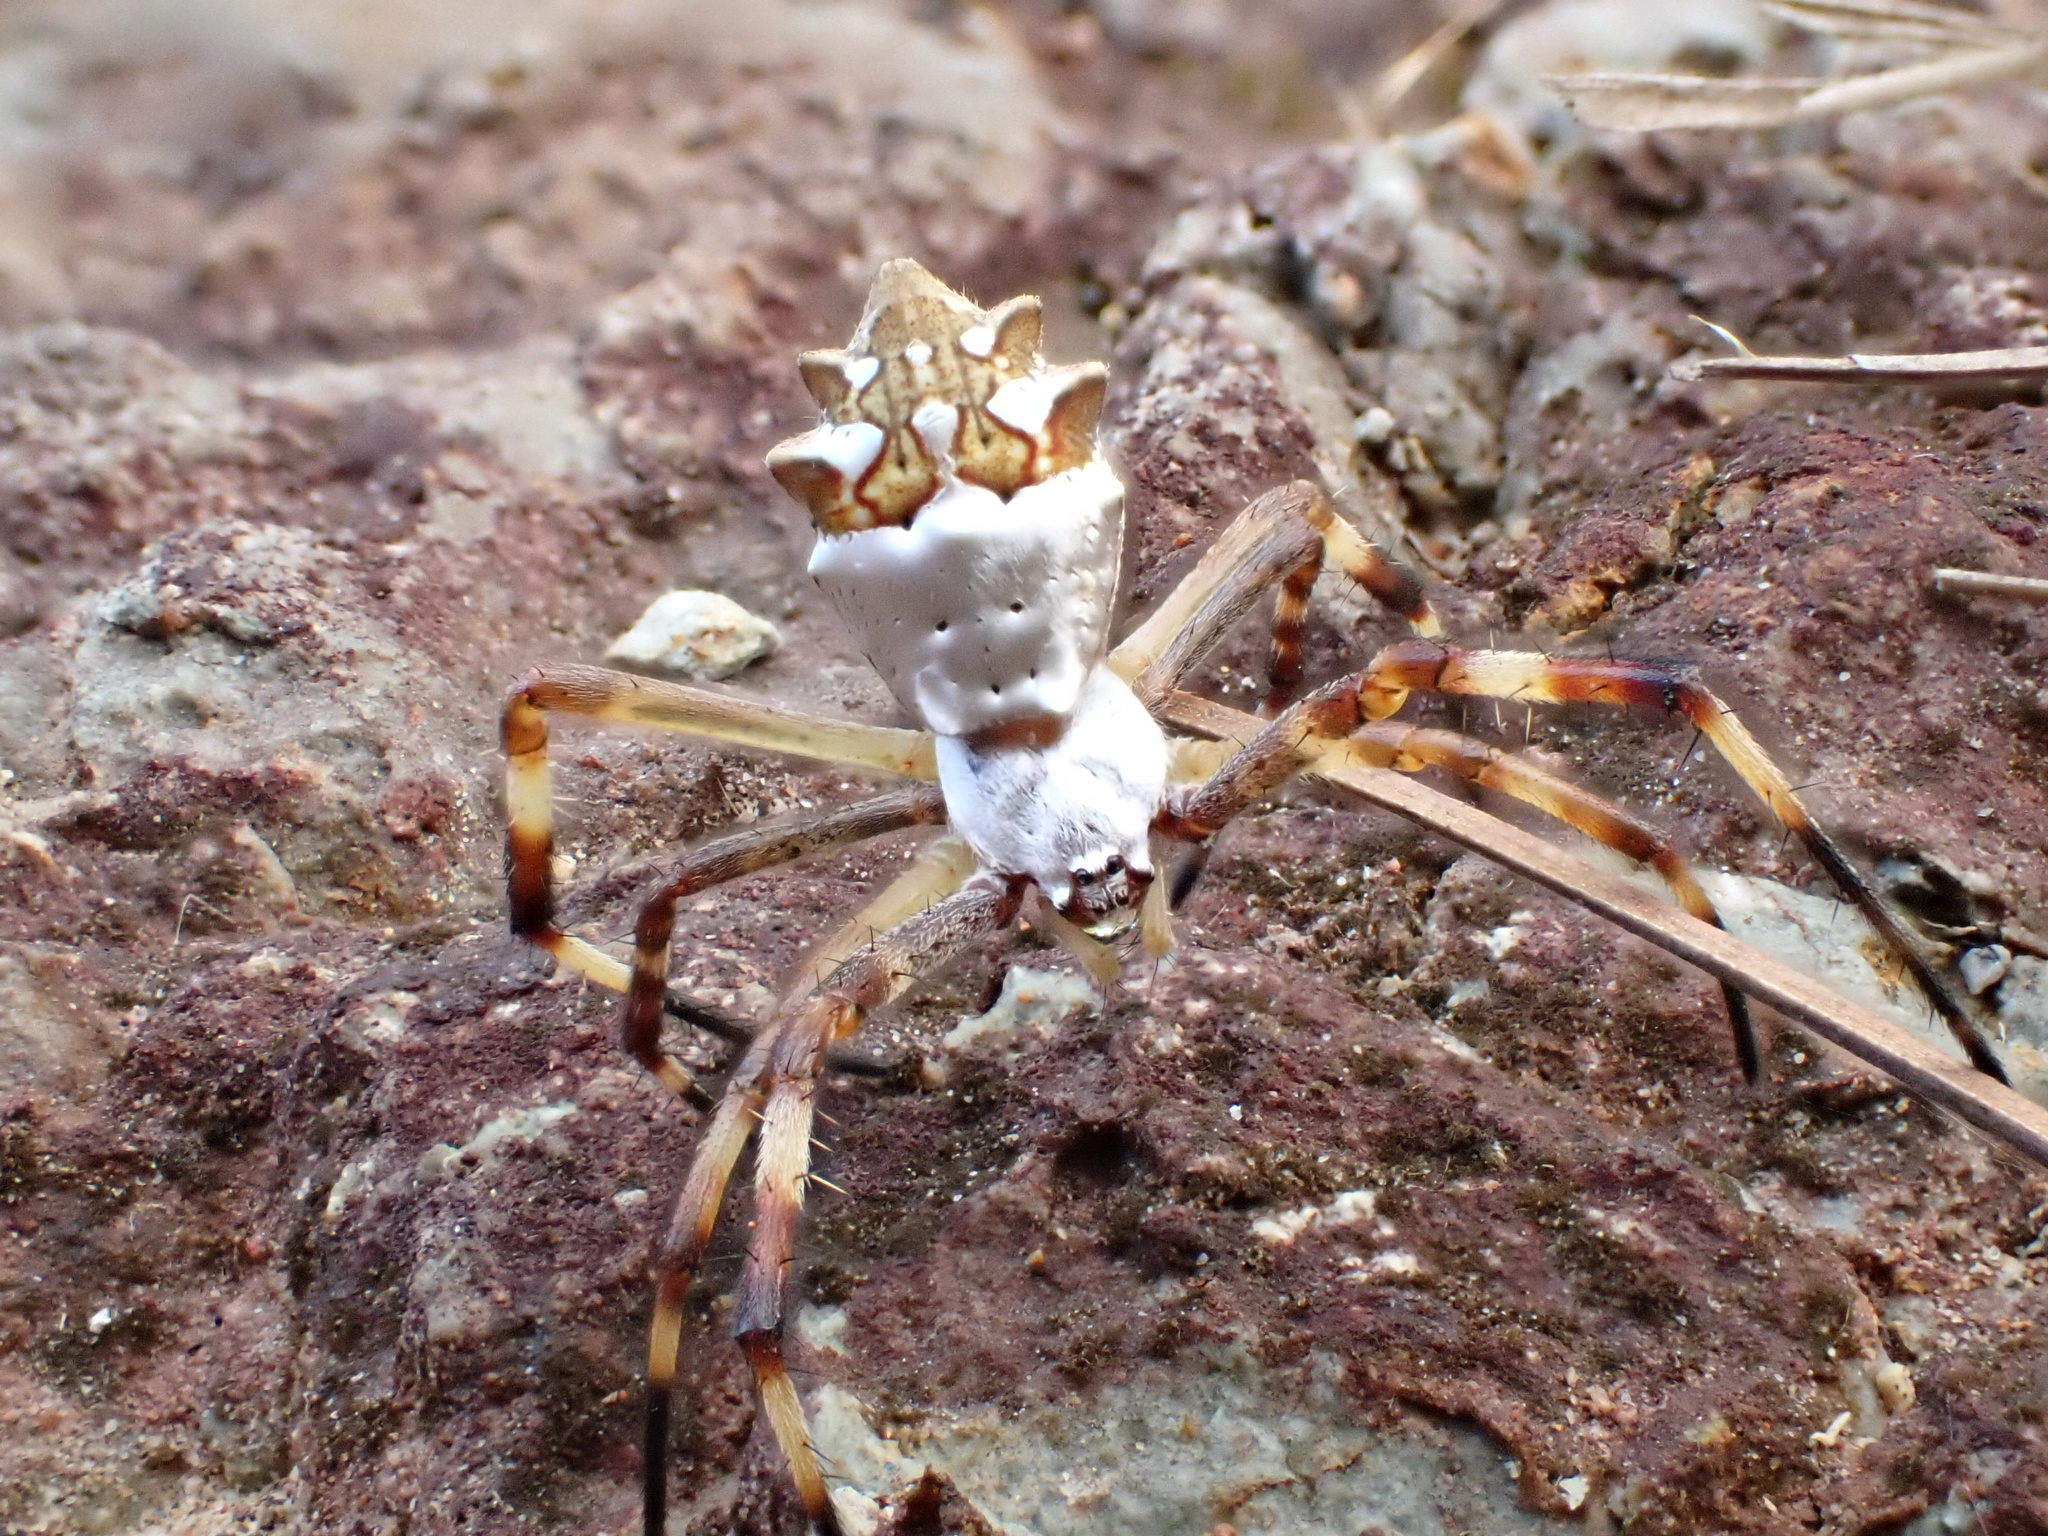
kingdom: Animalia
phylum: Arthropoda
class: Arachnida
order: Araneae
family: Araneidae
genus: Argiope
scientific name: Argiope argentata
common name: Orb weavers
